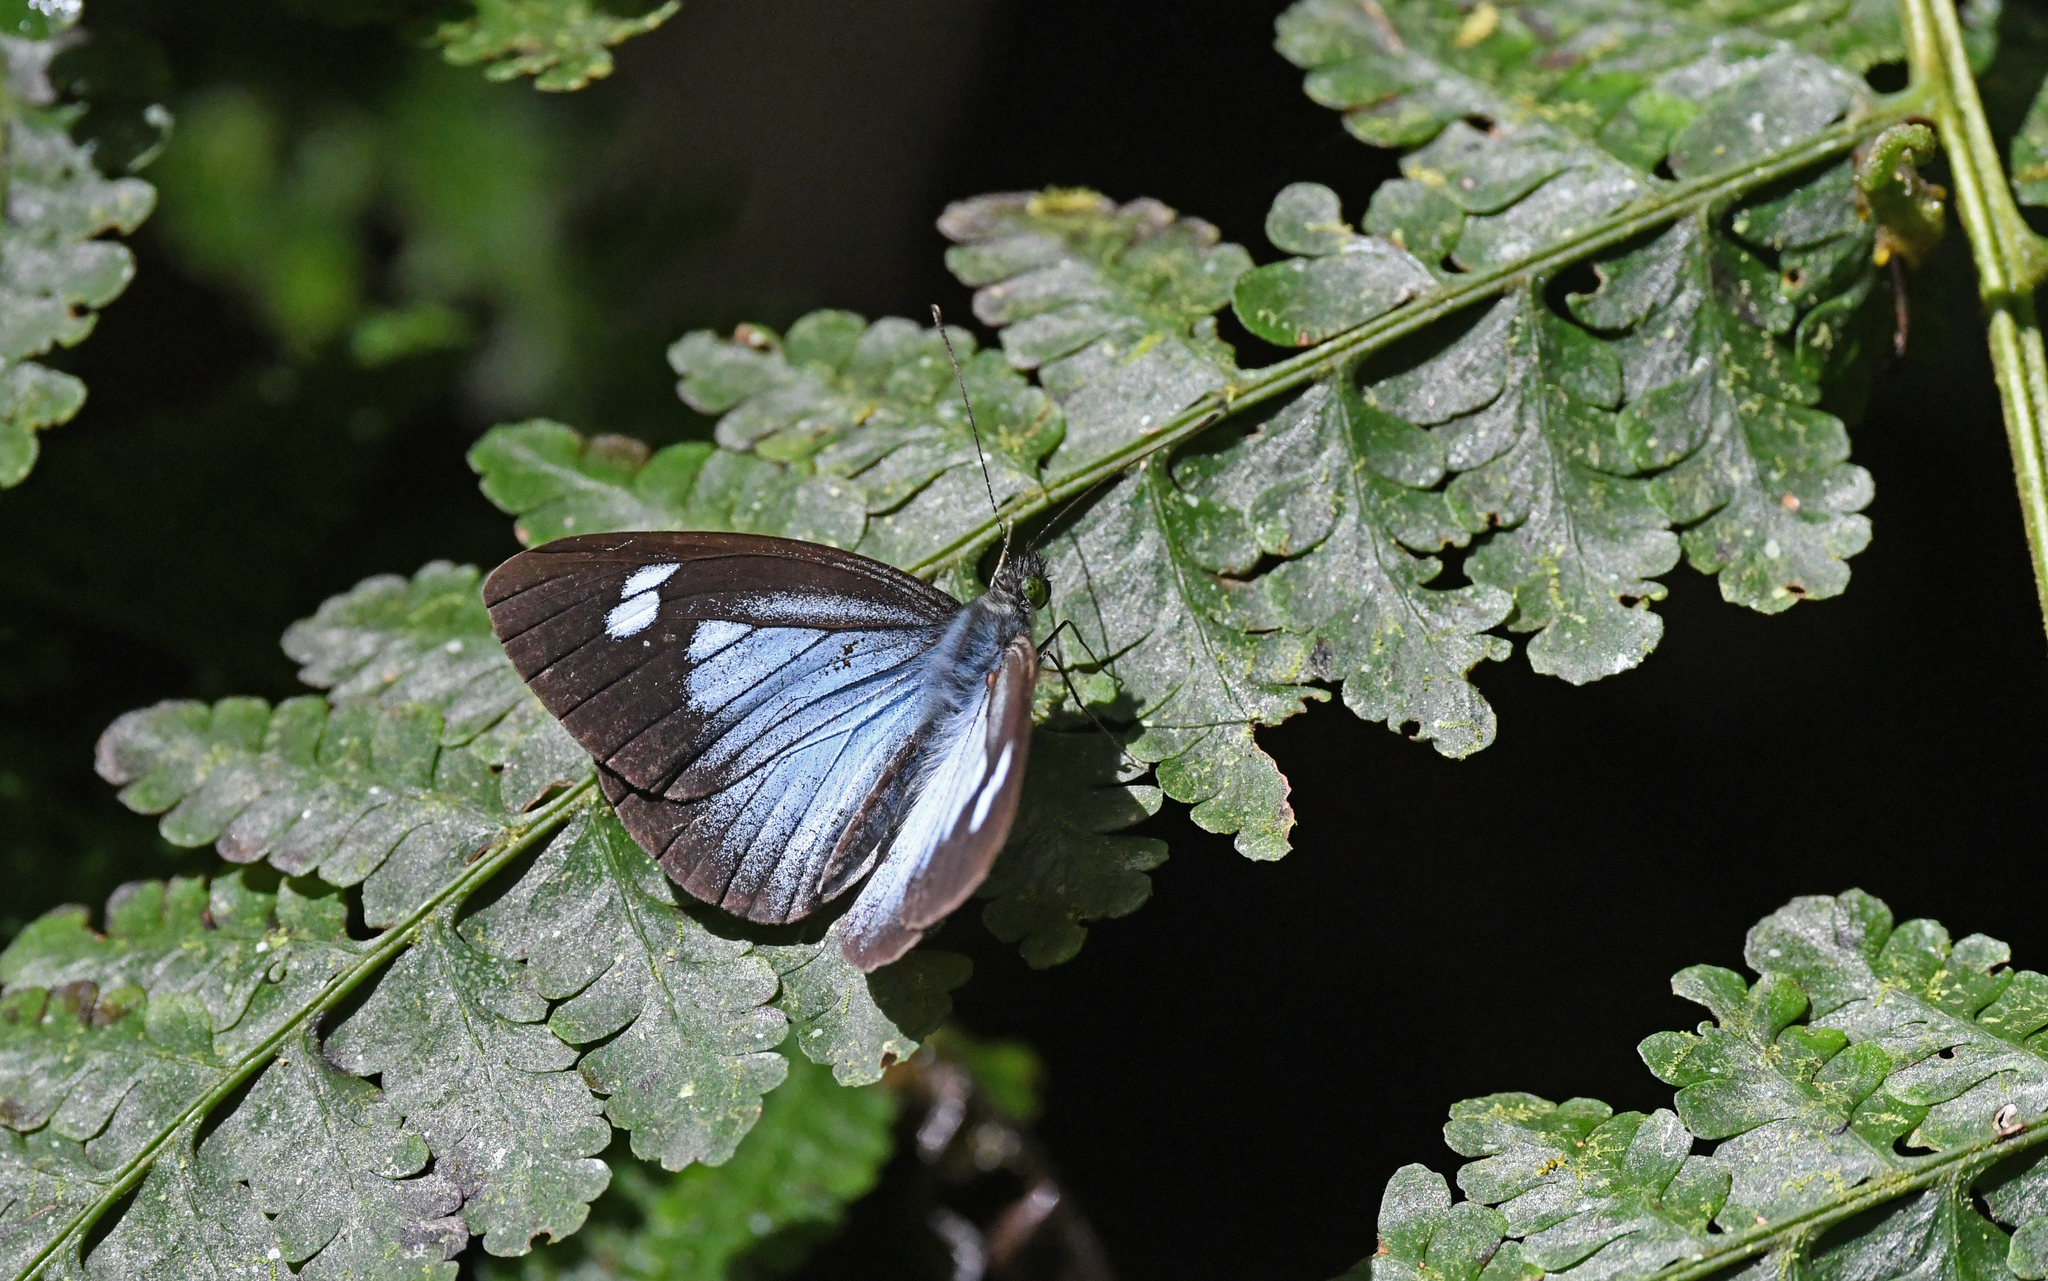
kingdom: Animalia
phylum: Arthropoda
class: Insecta
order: Lepidoptera
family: Pieridae
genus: Leptophobia
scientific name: Leptophobia caesia
